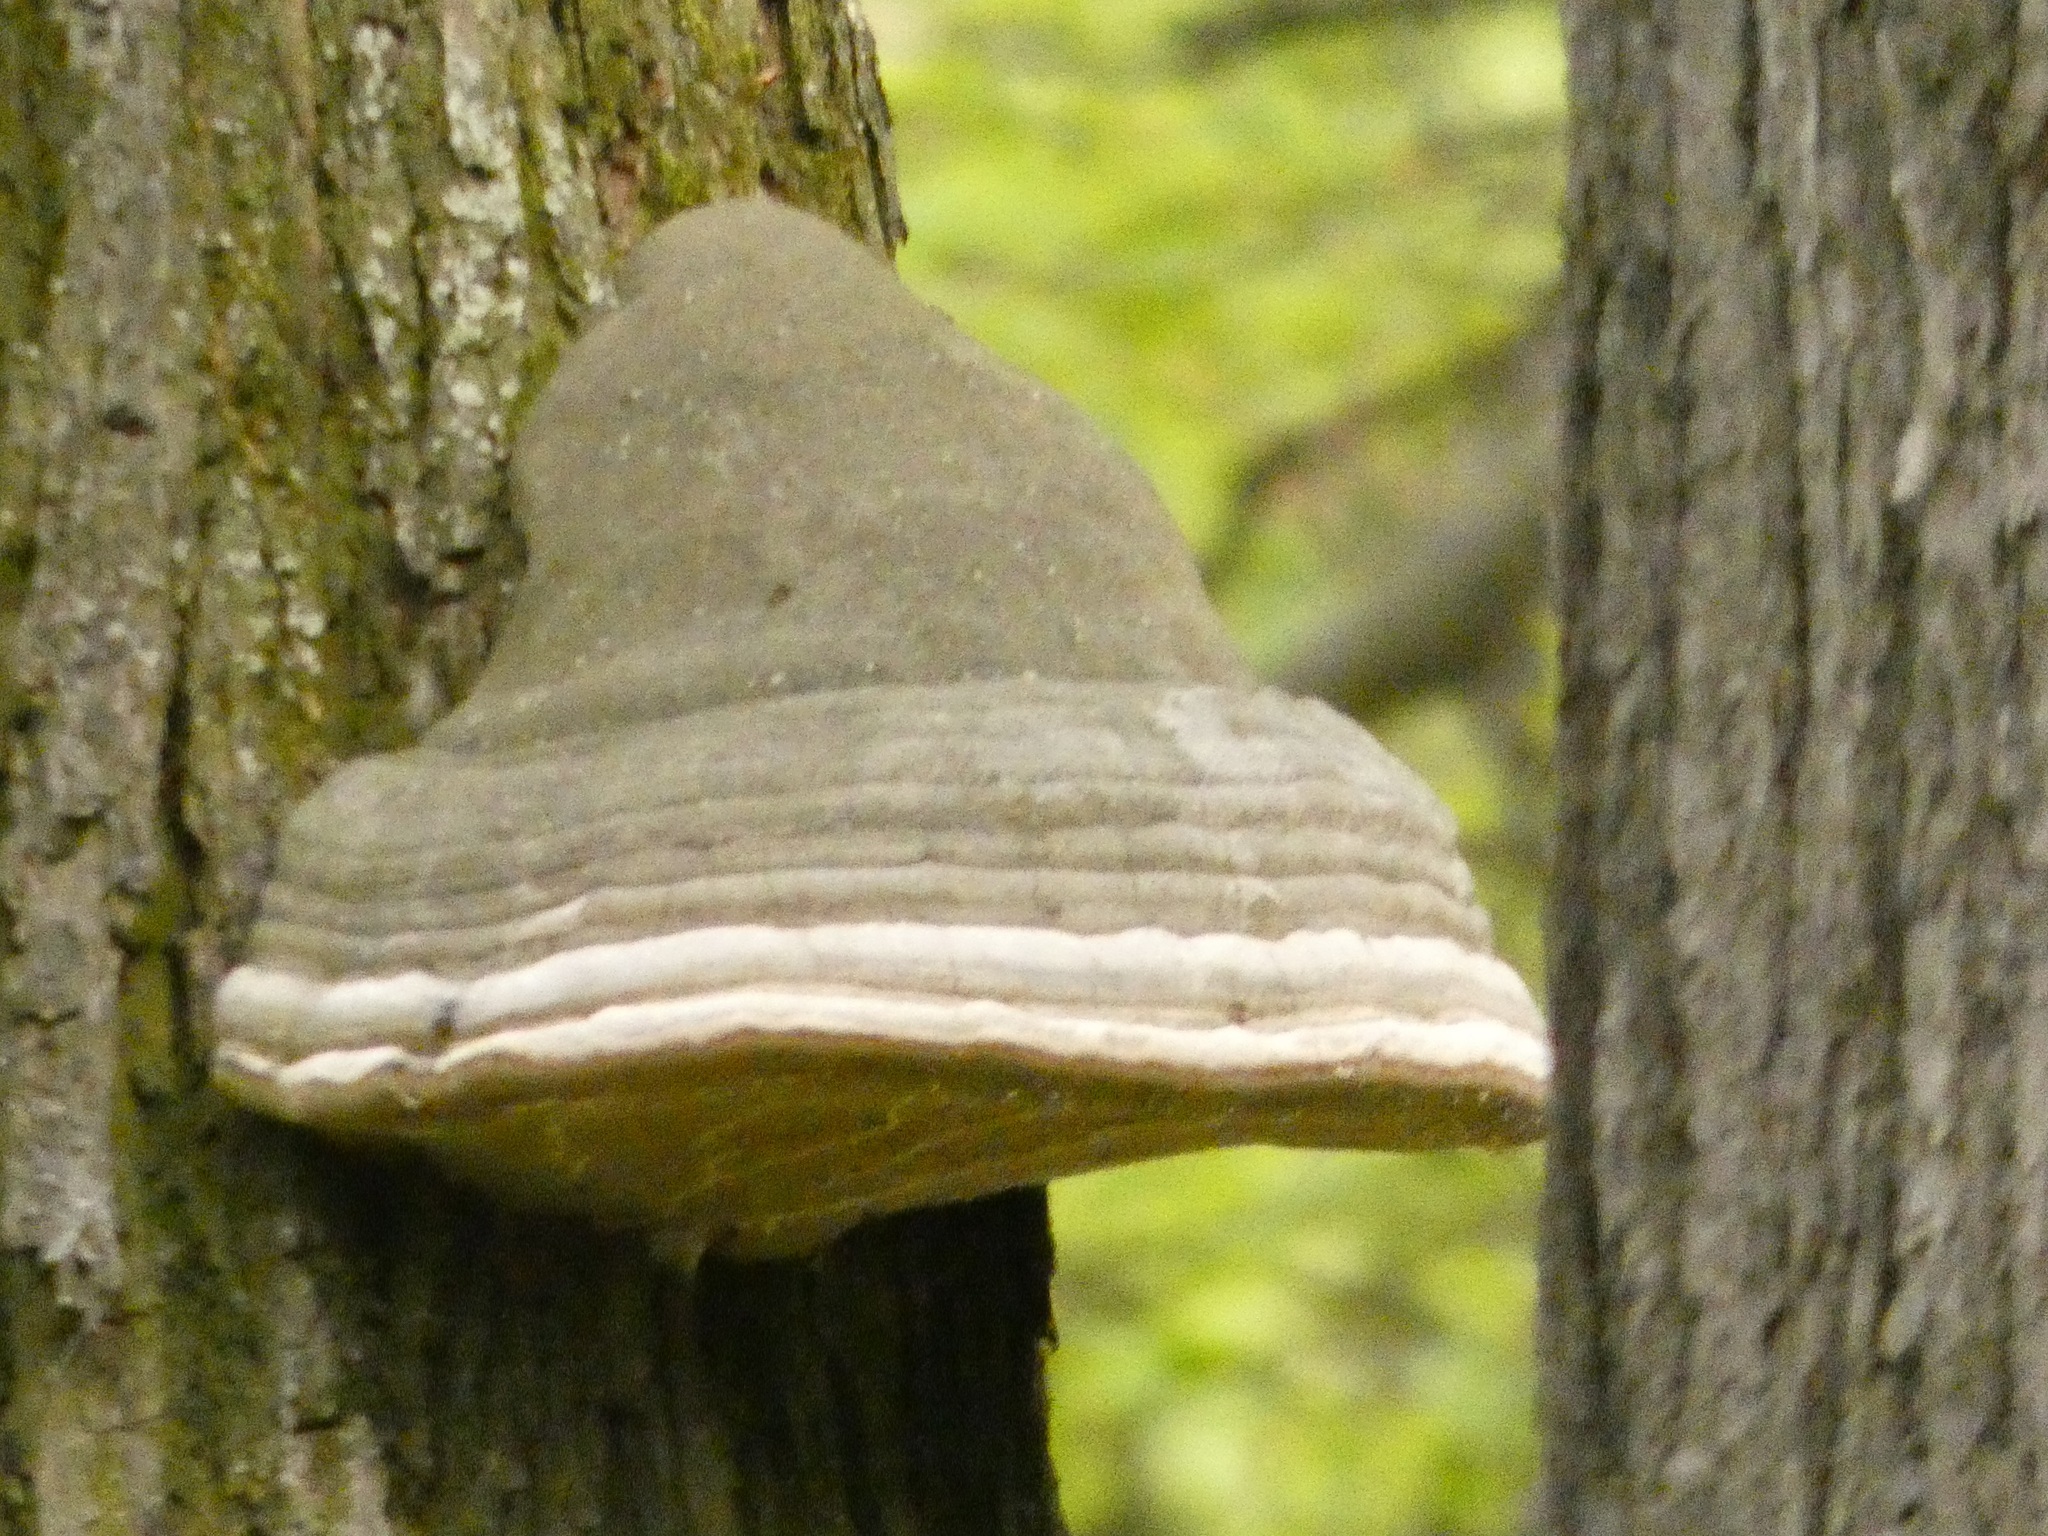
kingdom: Fungi
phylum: Basidiomycota
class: Agaricomycetes
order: Polyporales
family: Polyporaceae
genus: Fomes
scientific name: Fomes fomentarius
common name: Hoof fungus
